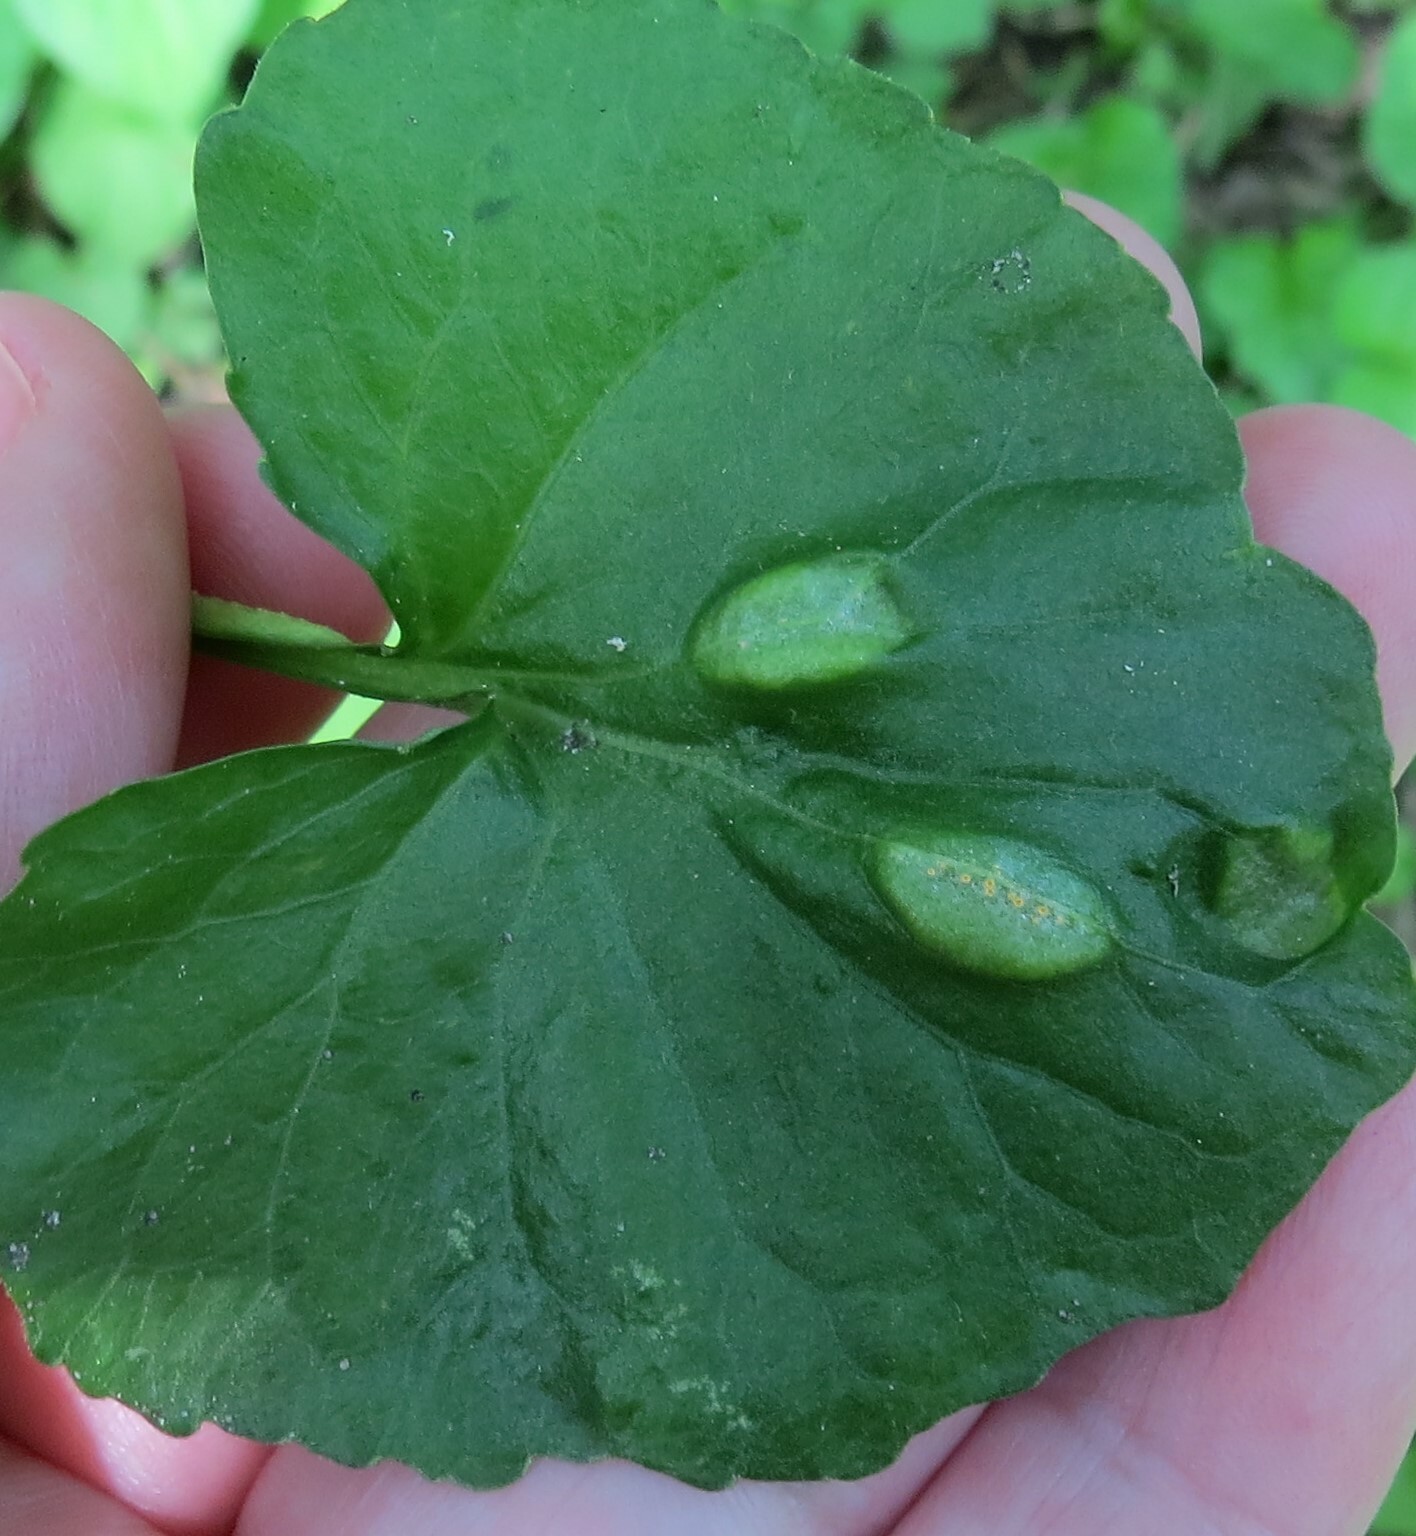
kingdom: Fungi
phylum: Basidiomycota
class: Pucciniomycetes
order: Pucciniales
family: Pucciniaceae
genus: Puccinia
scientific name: Puccinia violae
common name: Violet rust
